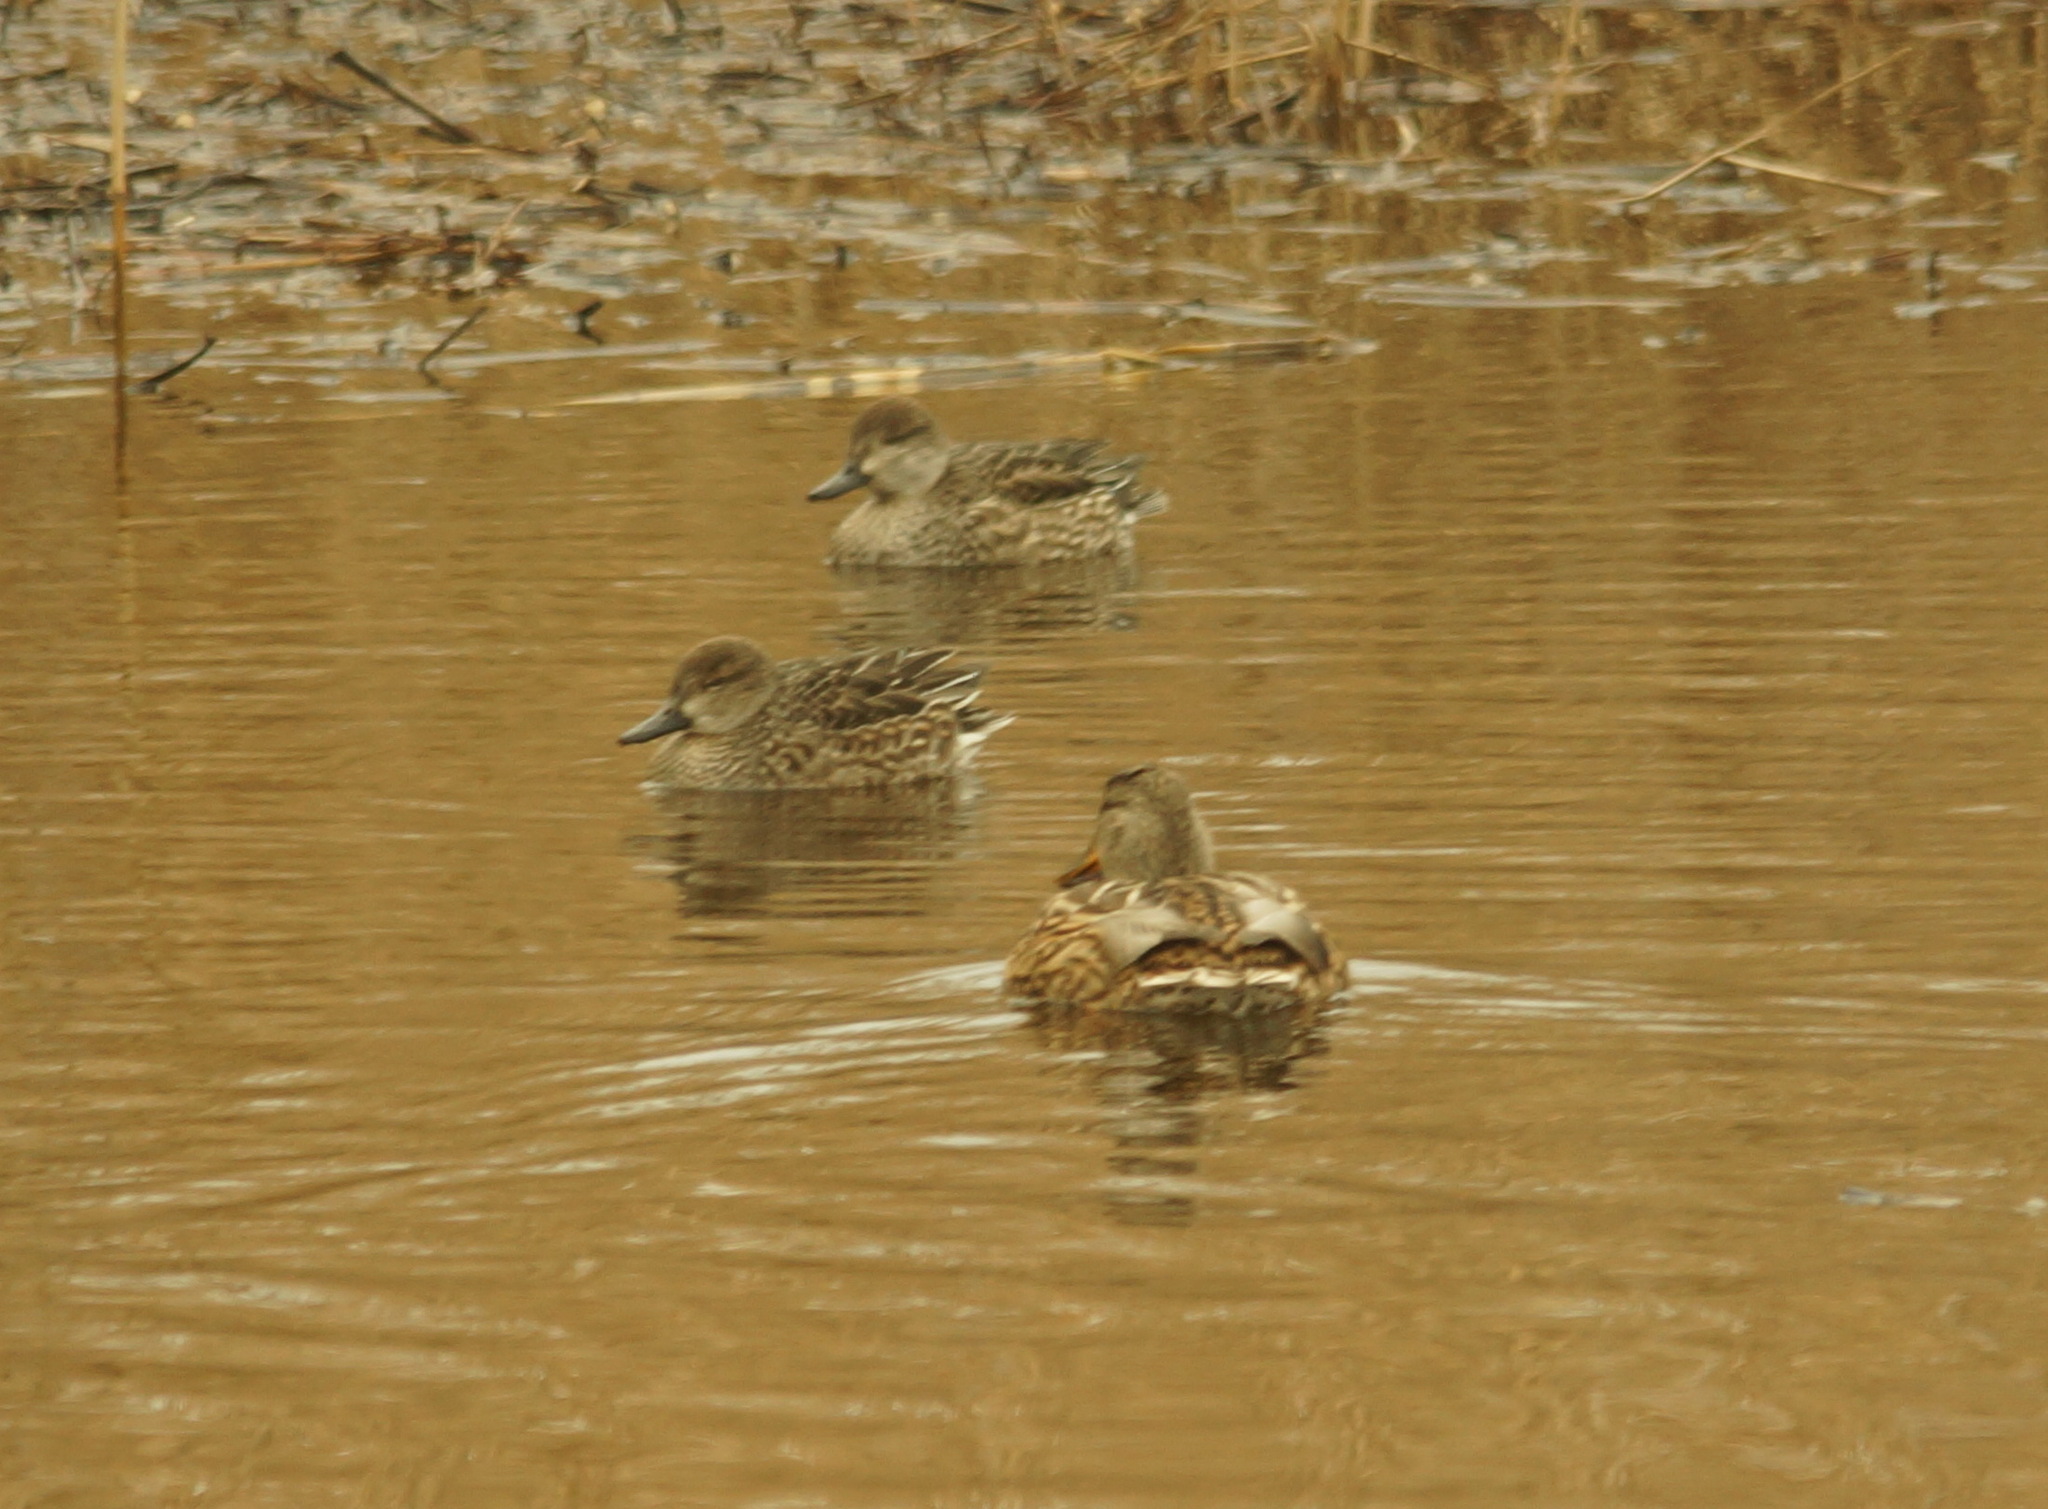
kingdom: Animalia
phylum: Chordata
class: Aves
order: Anseriformes
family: Anatidae
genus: Anas
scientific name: Anas crecca
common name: Eurasian teal
